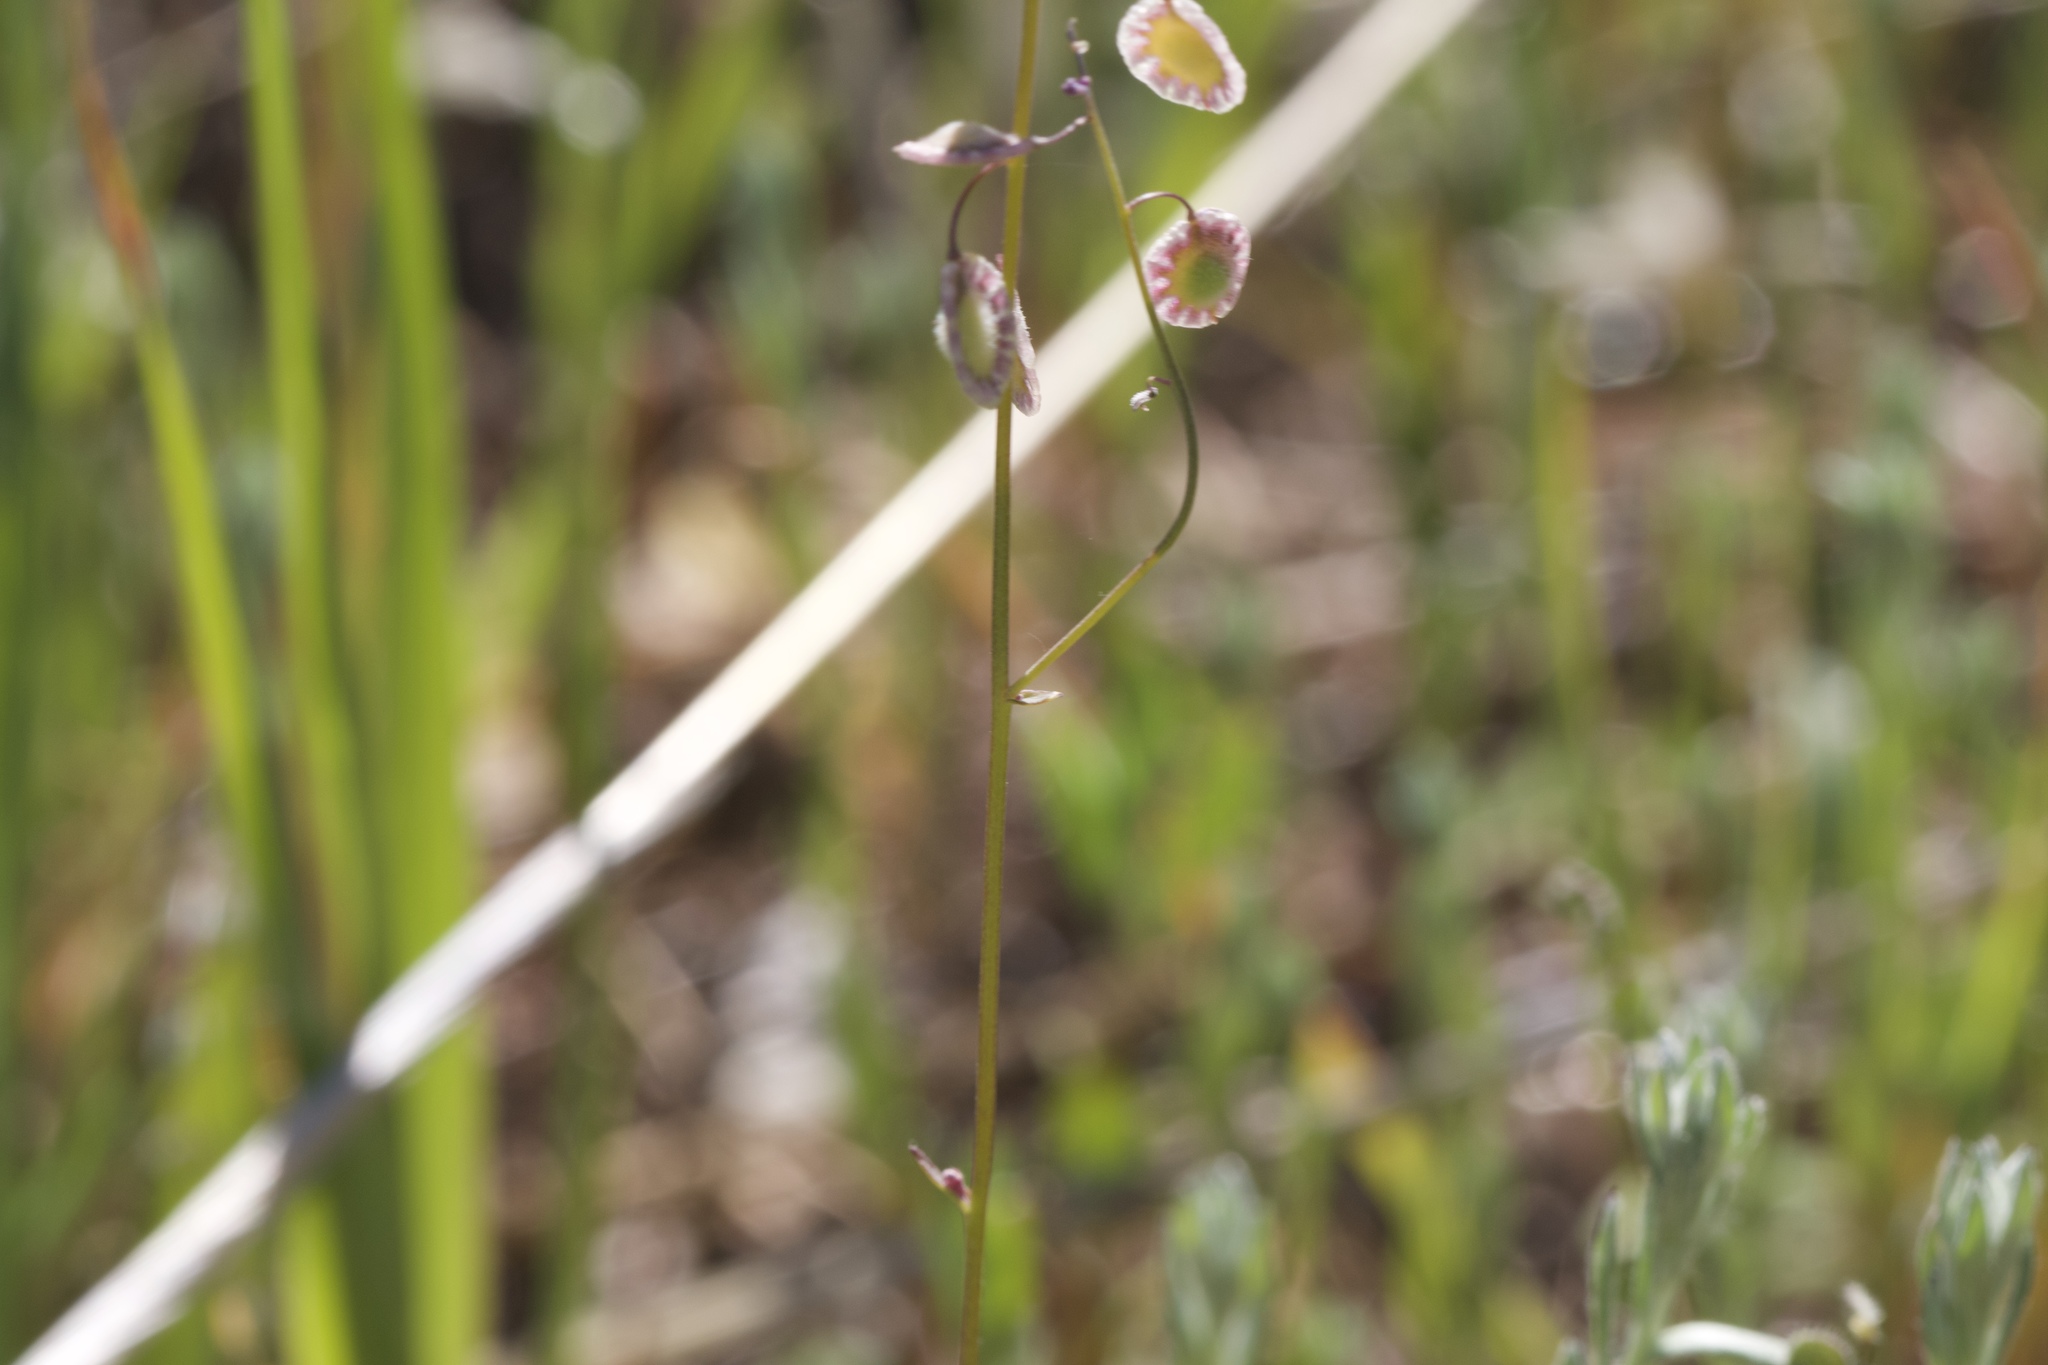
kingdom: Plantae
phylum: Tracheophyta
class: Magnoliopsida
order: Brassicales
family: Brassicaceae
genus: Thysanocarpus
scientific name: Thysanocarpus curvipes
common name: Sand fringepod
